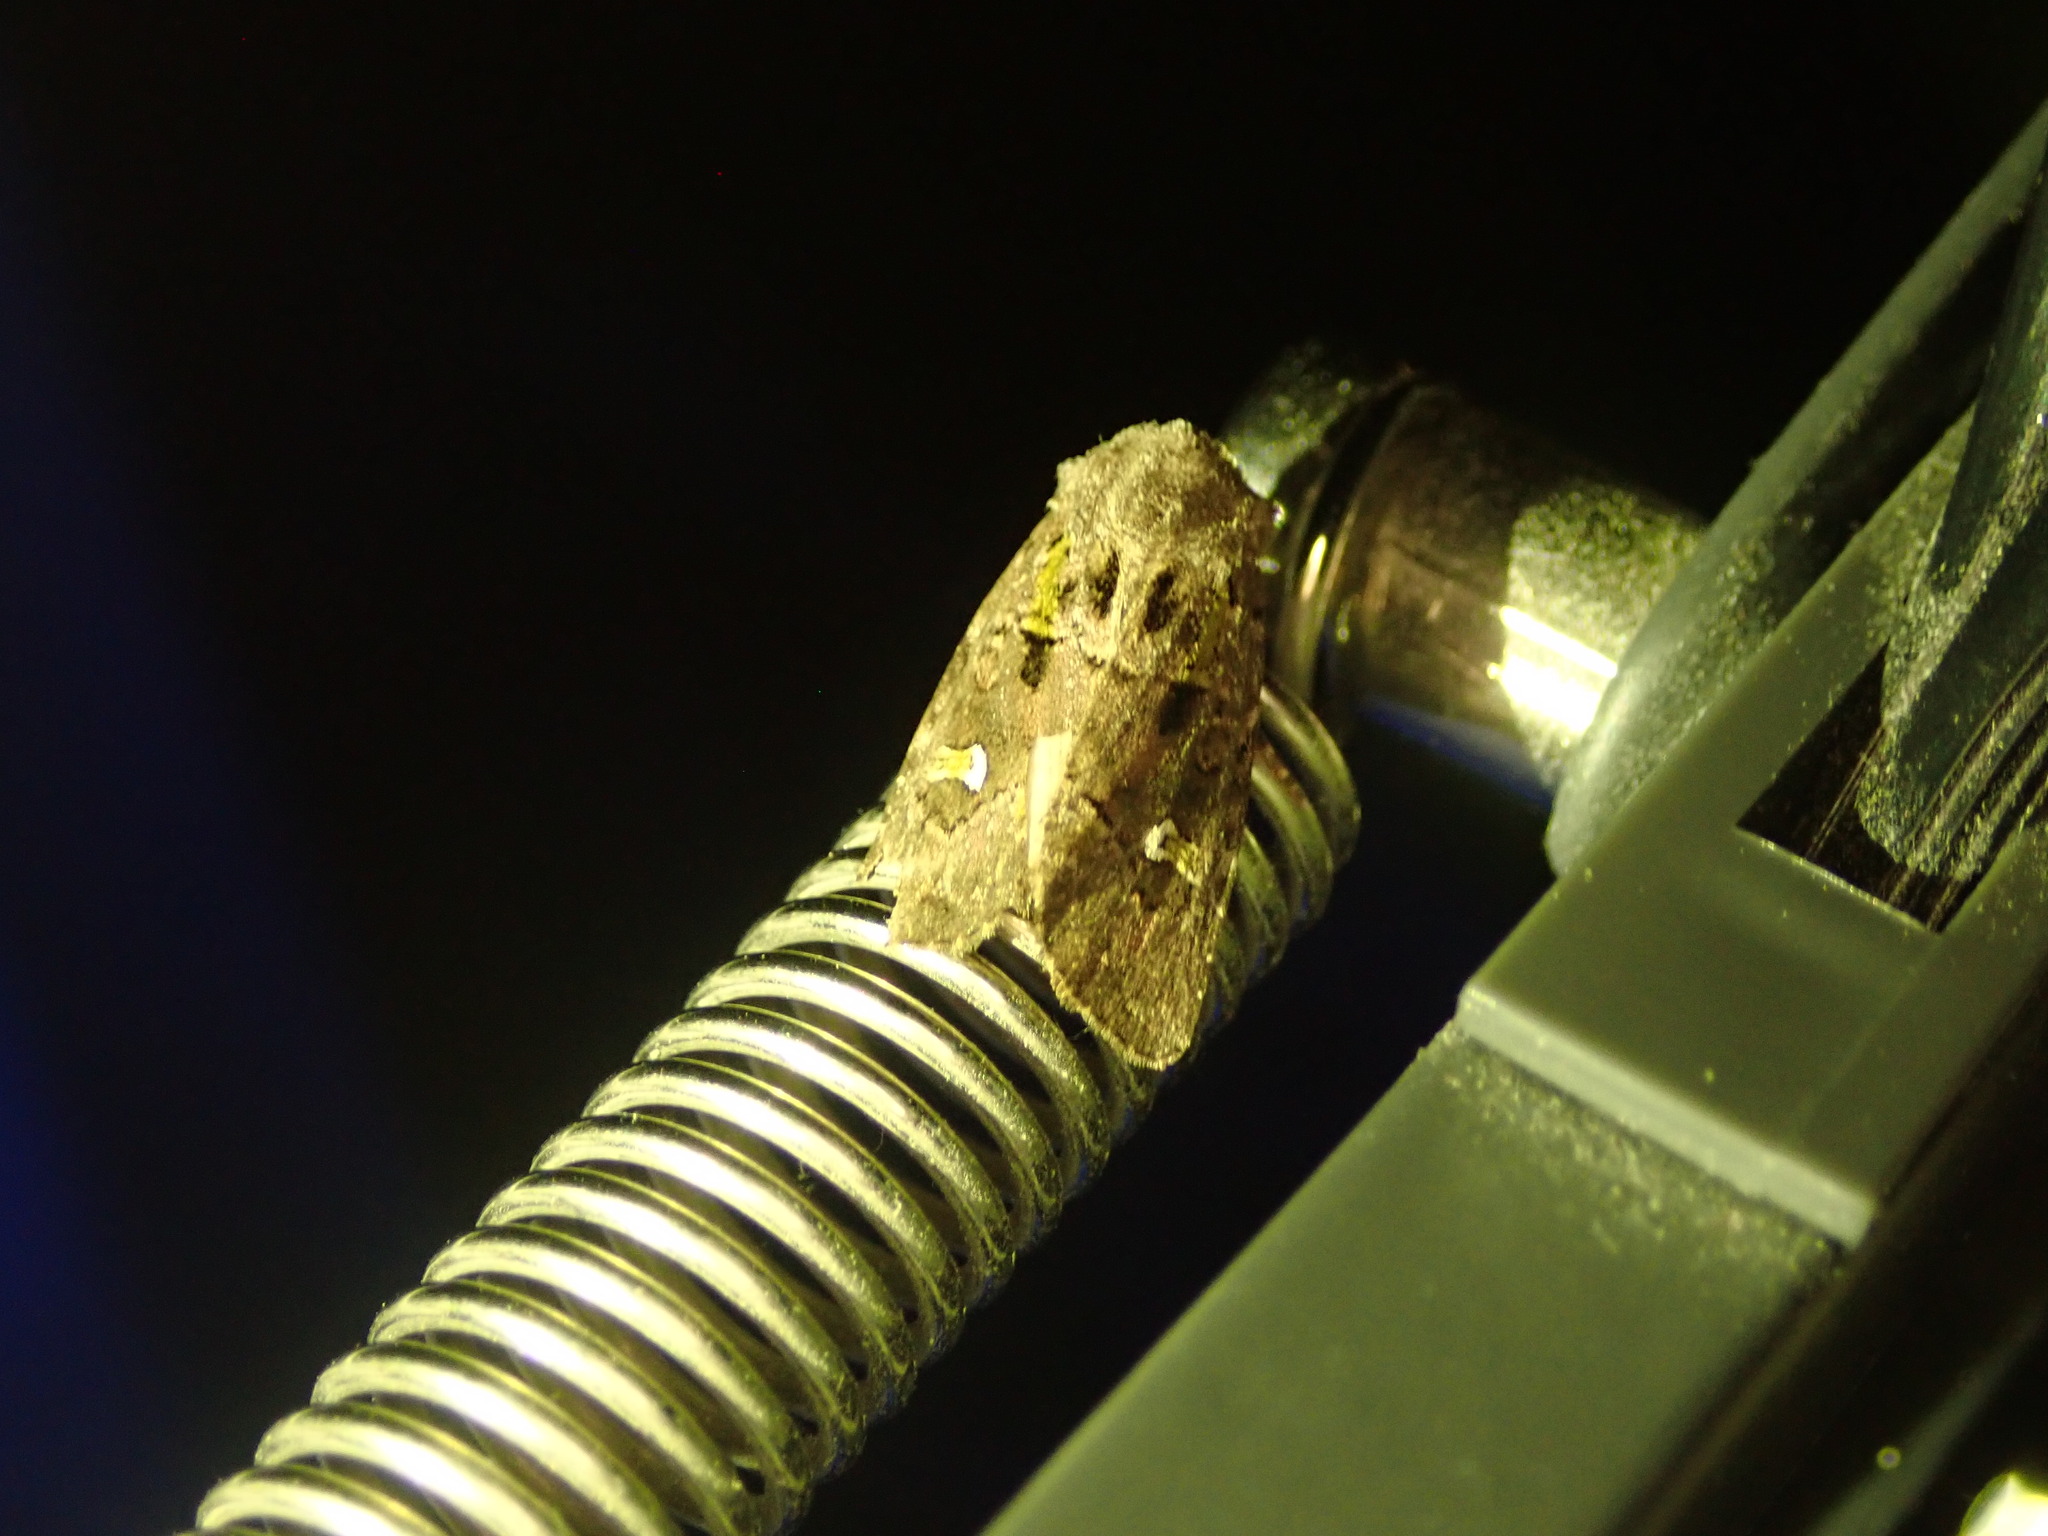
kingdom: Animalia
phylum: Arthropoda
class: Insecta
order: Lepidoptera
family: Noctuidae
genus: Lacinipolia
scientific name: Lacinipolia renigera
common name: Kidney-spotted minor
